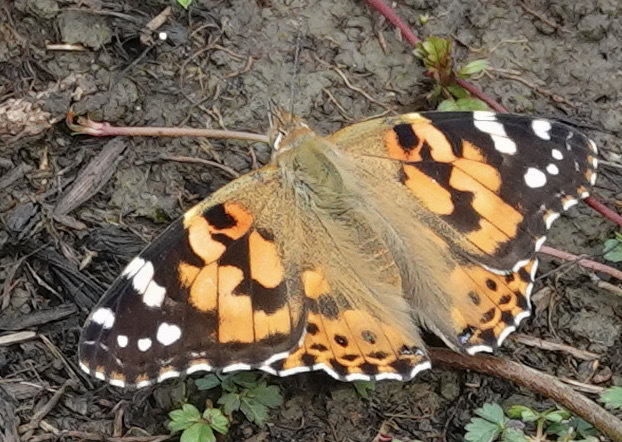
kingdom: Animalia
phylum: Arthropoda
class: Insecta
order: Lepidoptera
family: Nymphalidae
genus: Vanessa
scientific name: Vanessa cardui
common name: Painted lady
